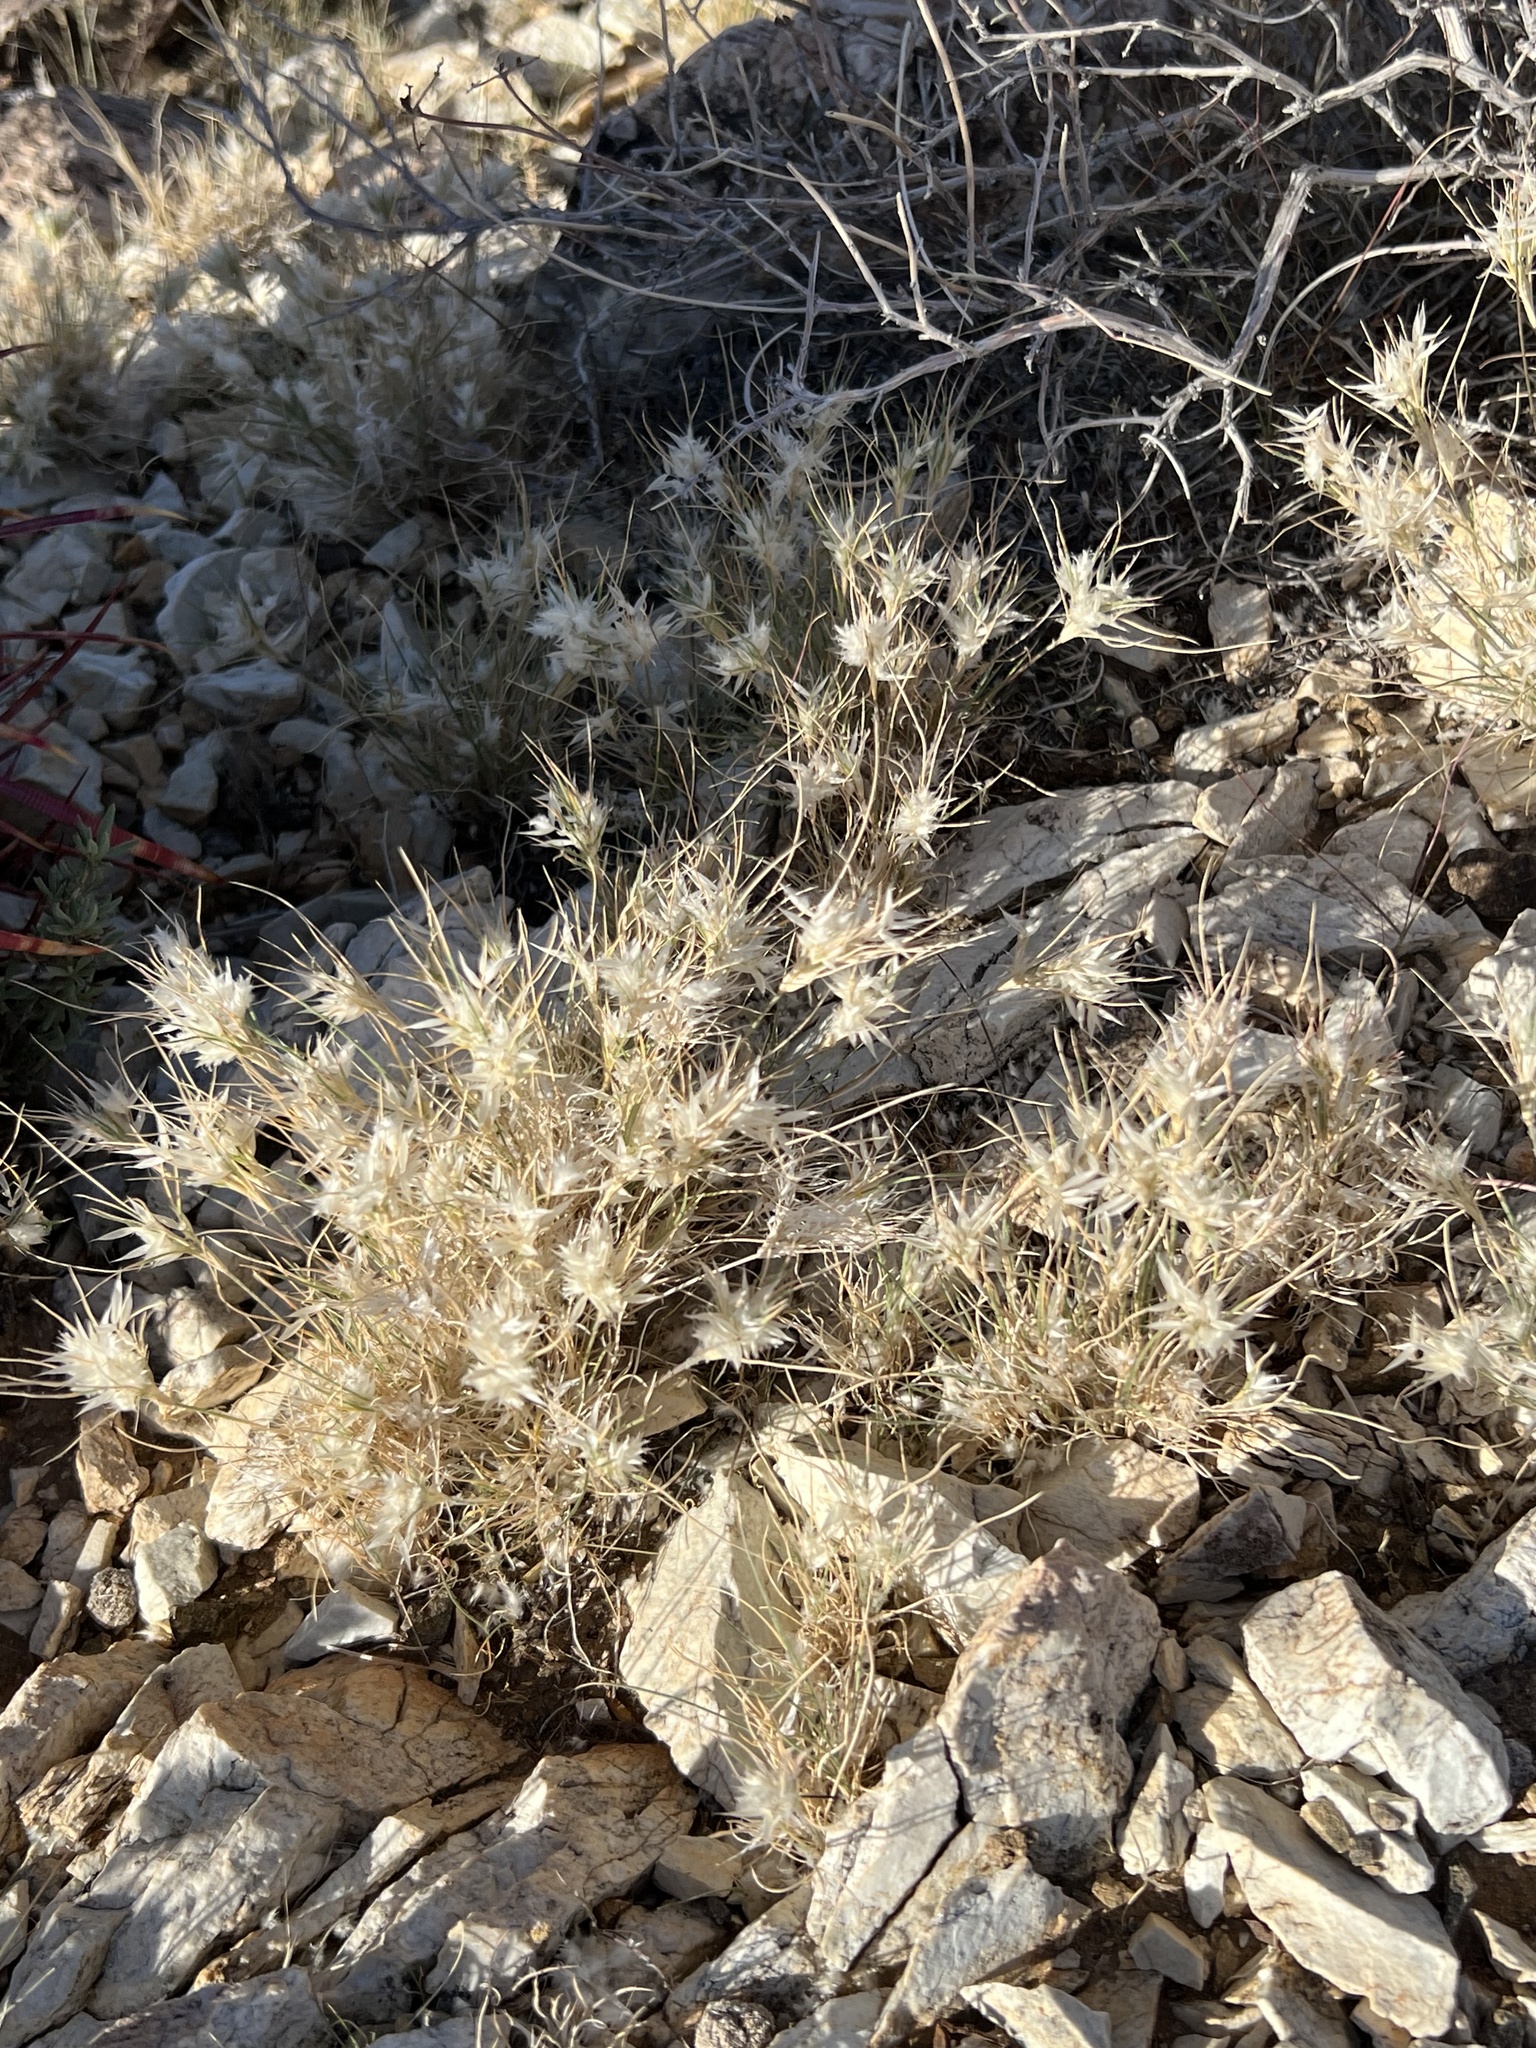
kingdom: Plantae
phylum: Tracheophyta
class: Liliopsida
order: Poales
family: Poaceae
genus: Dasyochloa
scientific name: Dasyochloa pulchella
